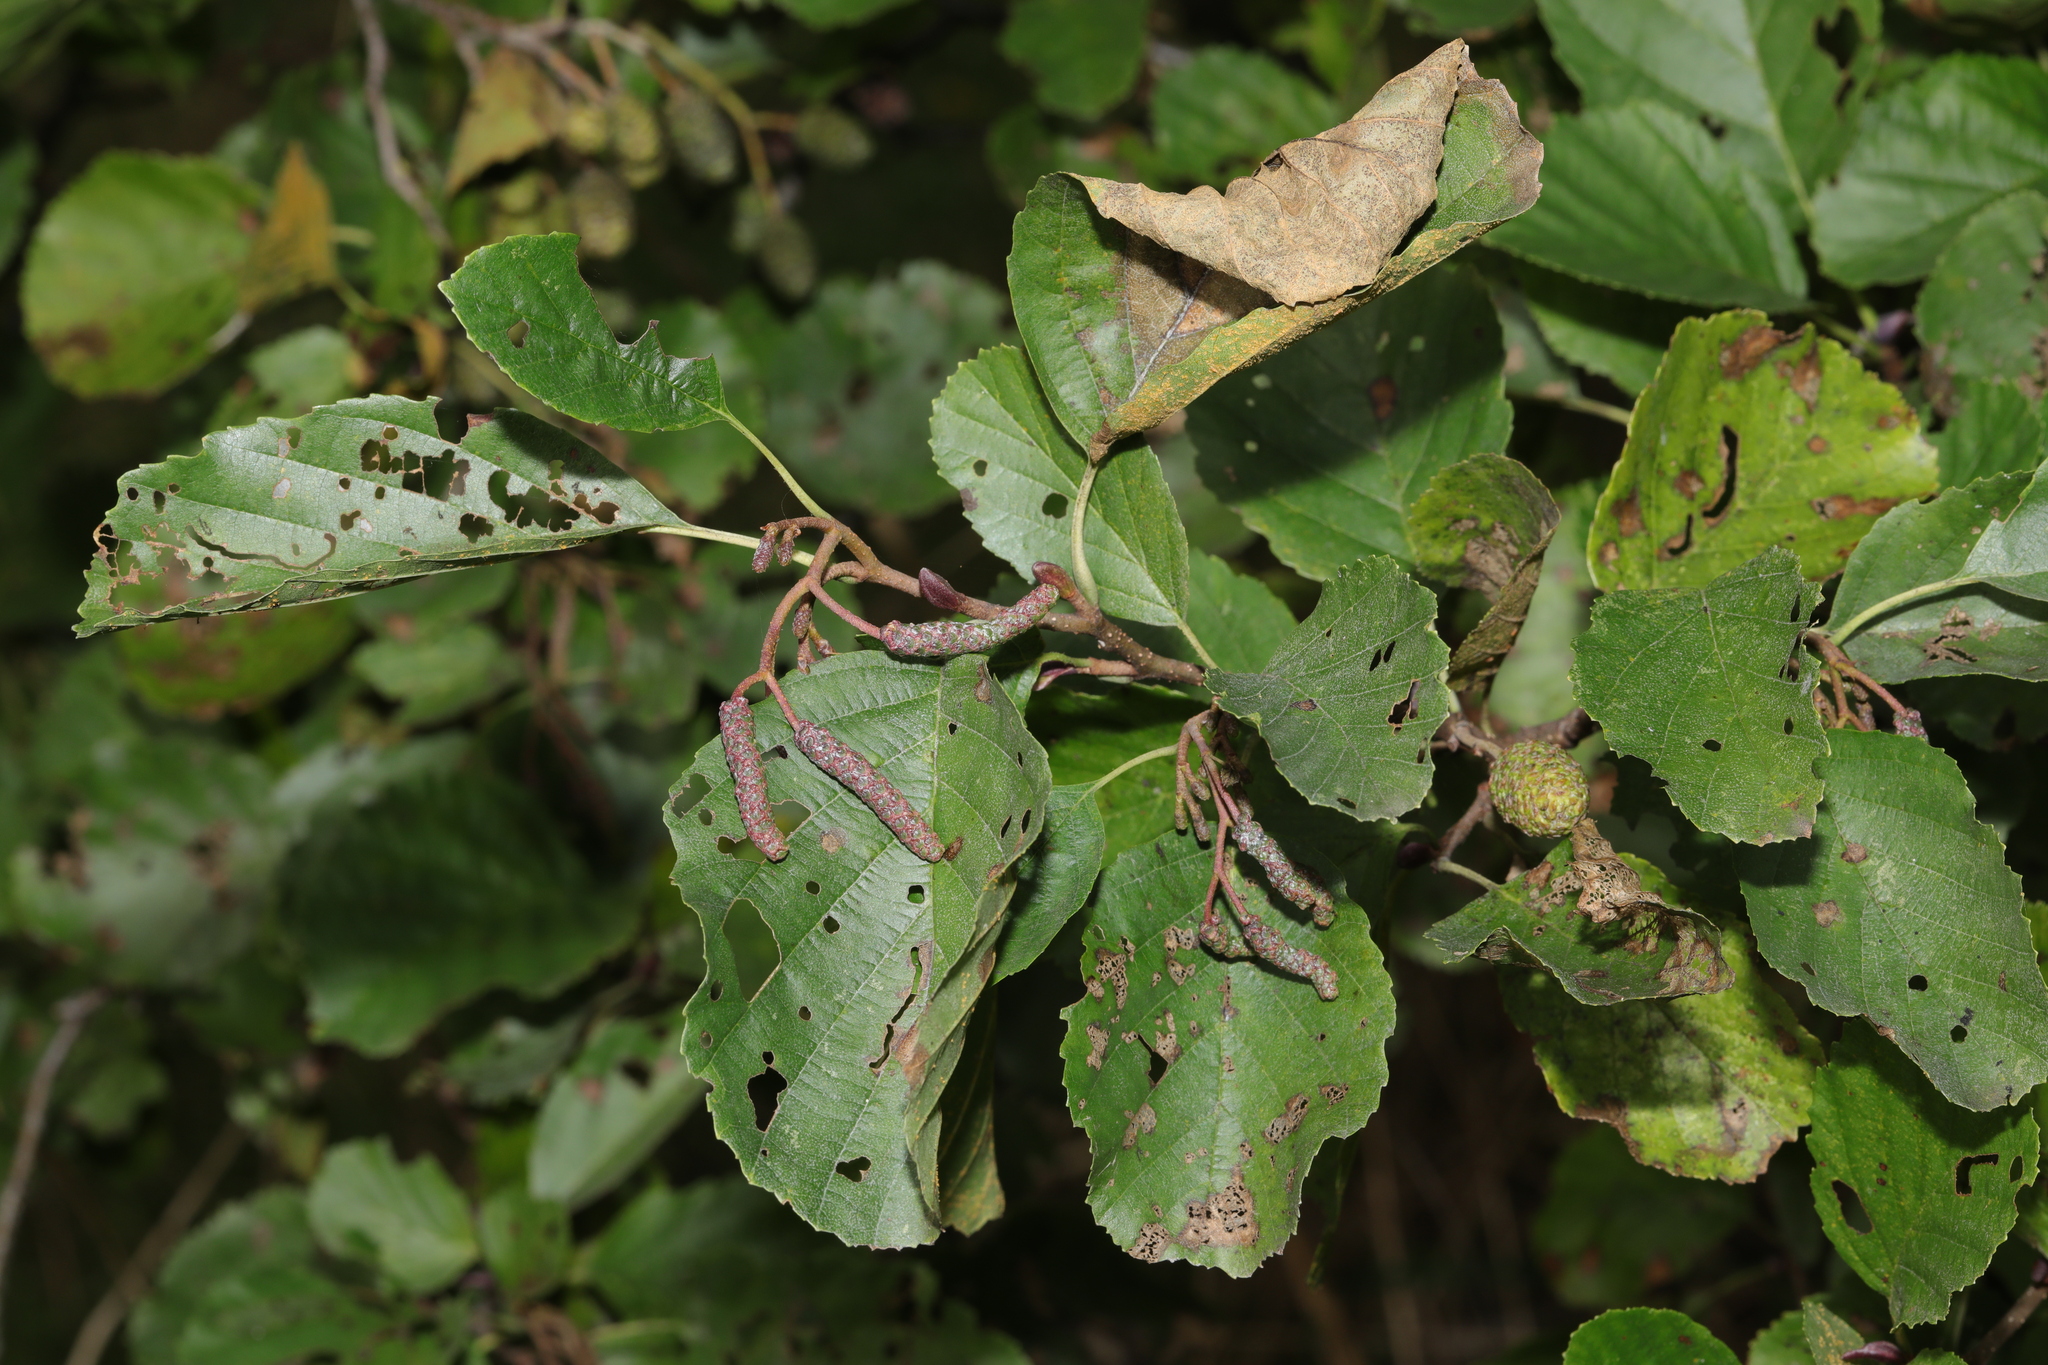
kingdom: Plantae
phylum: Tracheophyta
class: Magnoliopsida
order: Fagales
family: Betulaceae
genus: Alnus
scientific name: Alnus glutinosa
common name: Black alder
